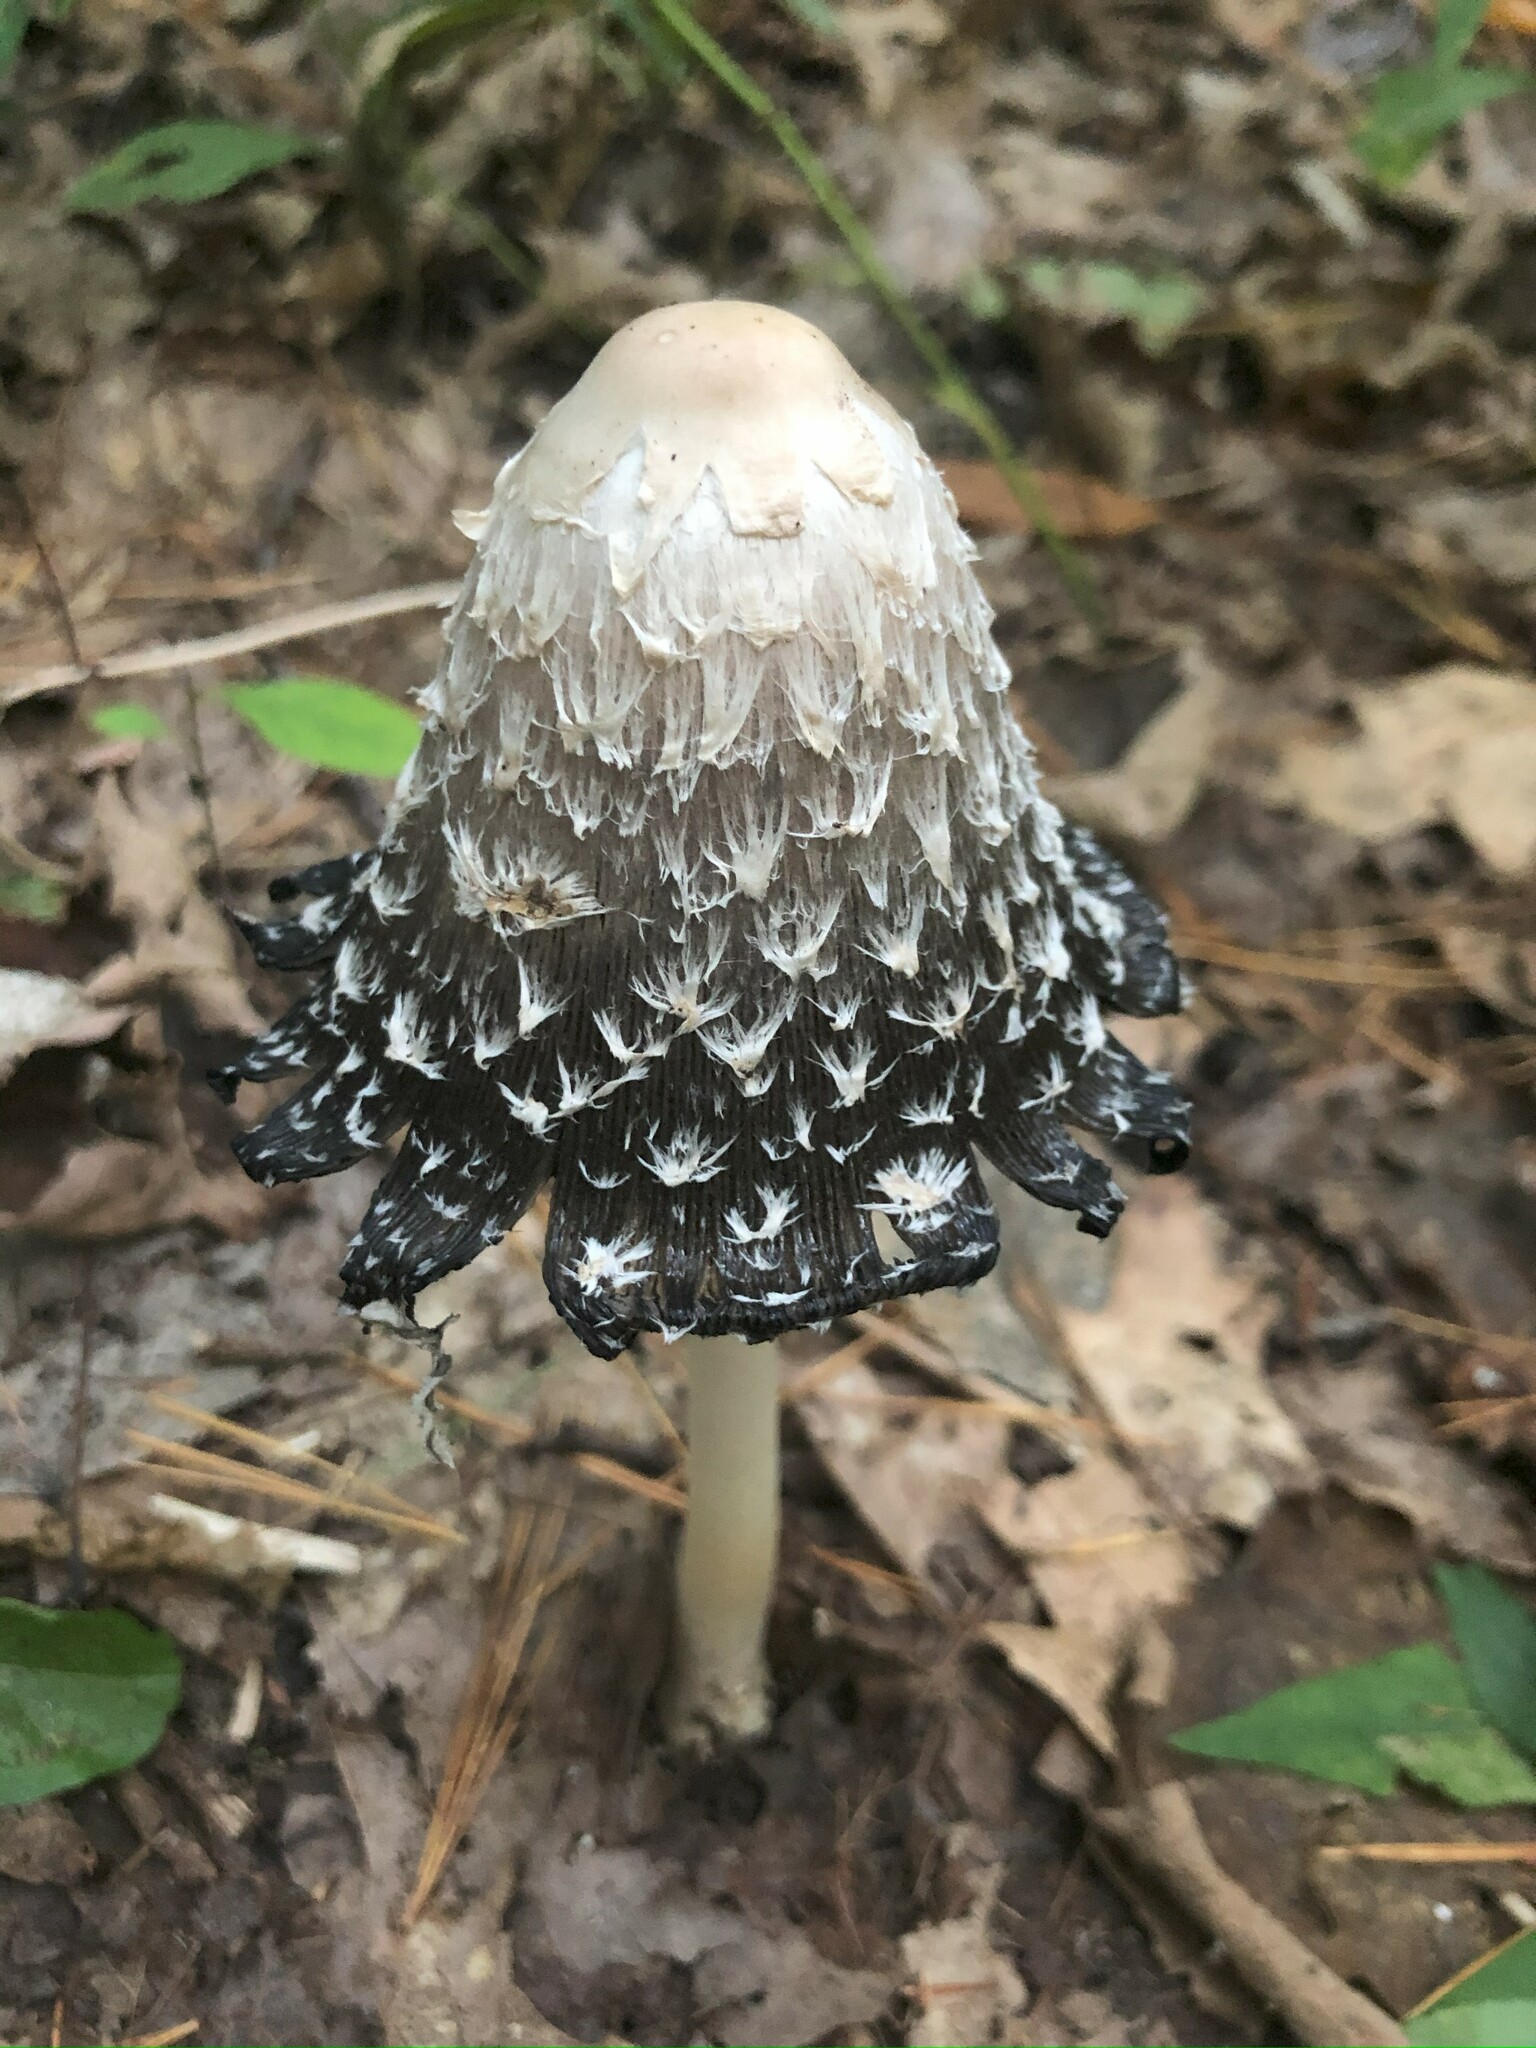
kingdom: Fungi
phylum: Basidiomycota
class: Agaricomycetes
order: Agaricales
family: Agaricaceae
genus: Coprinus
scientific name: Coprinus comatus
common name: Lawyer's wig
